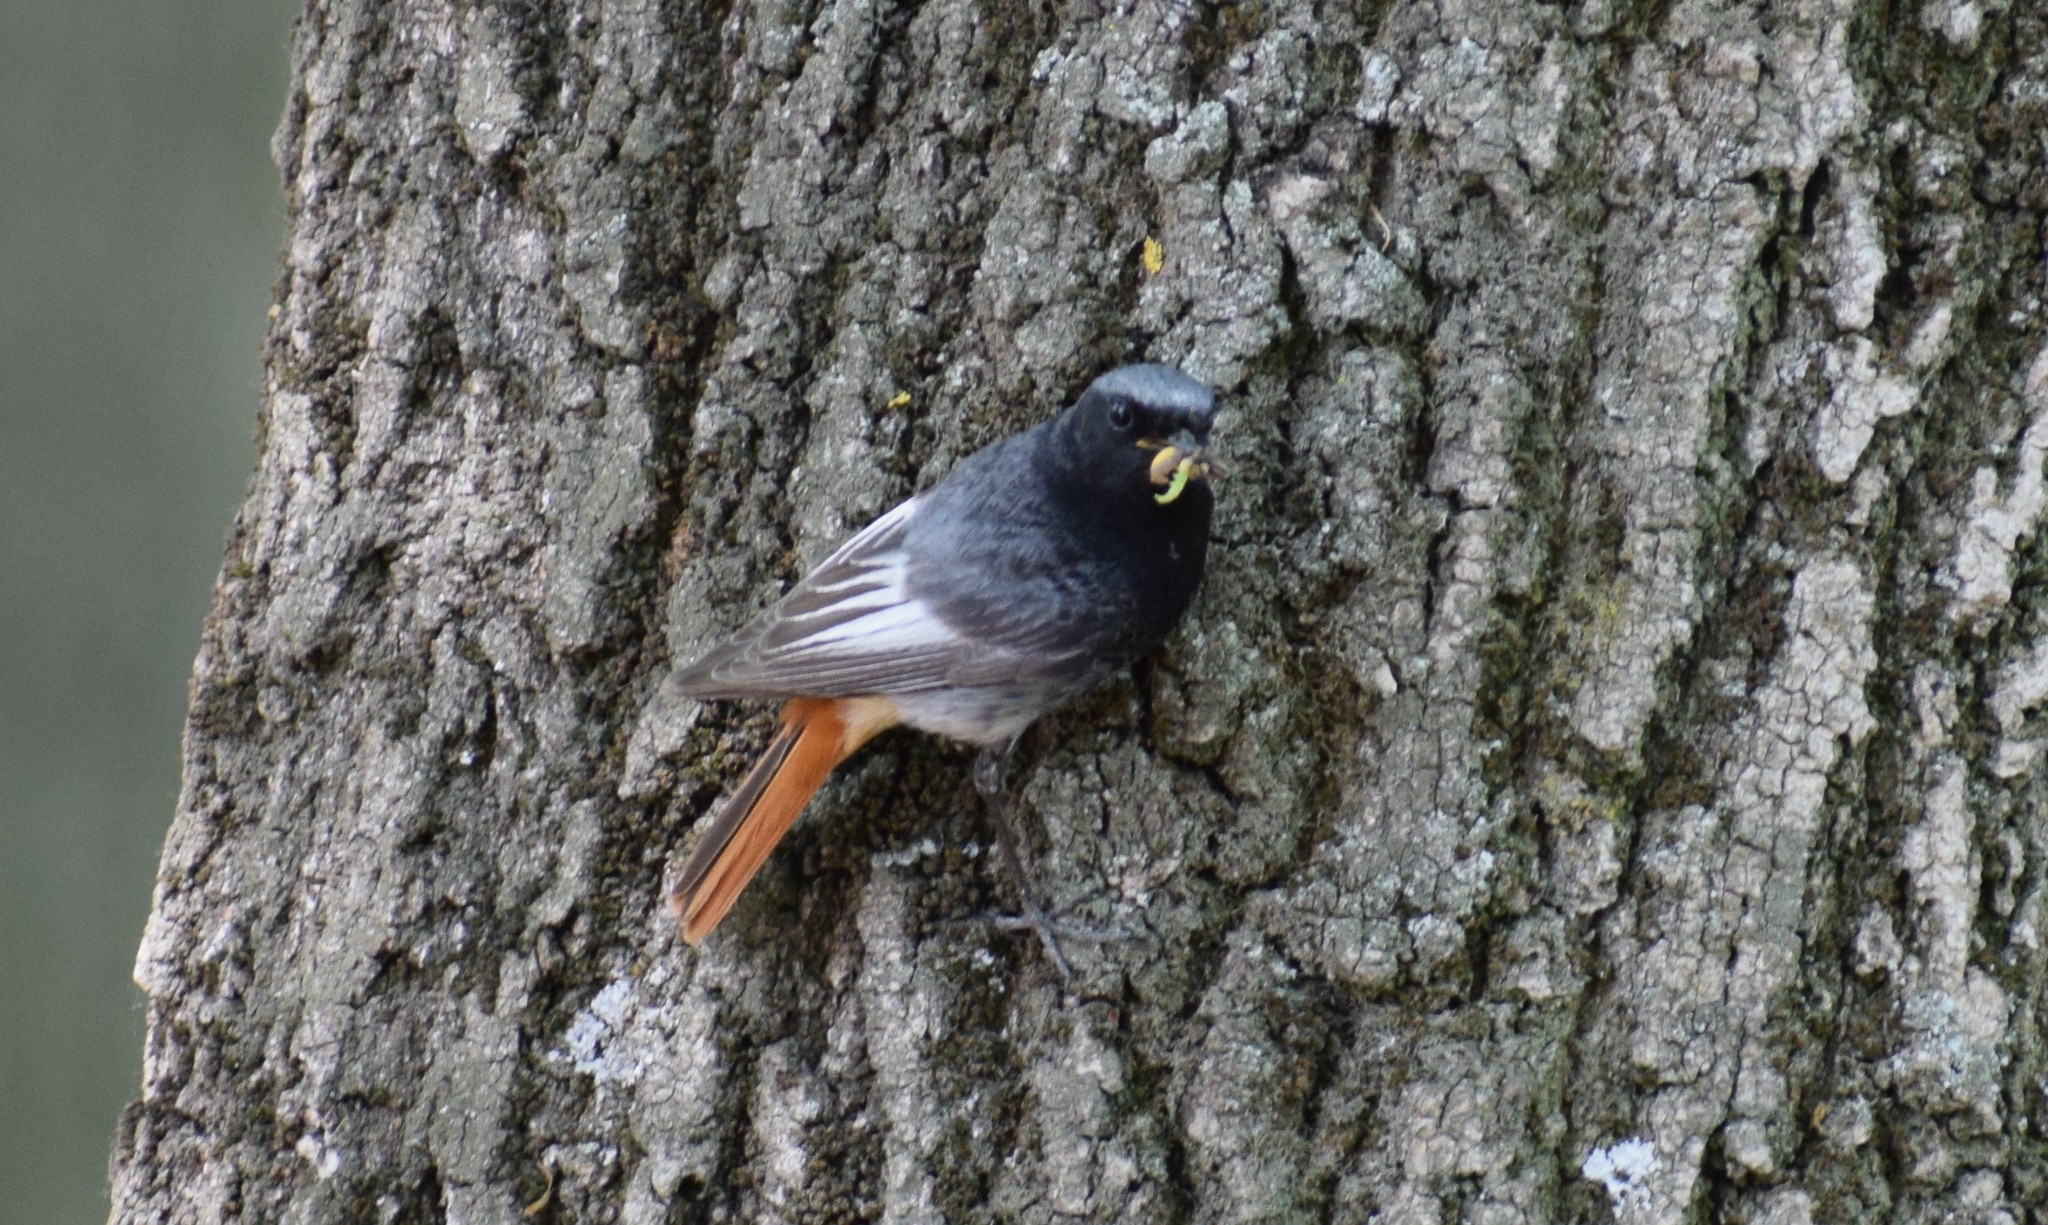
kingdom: Animalia
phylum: Chordata
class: Aves
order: Passeriformes
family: Muscicapidae
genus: Phoenicurus
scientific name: Phoenicurus phoenicurus
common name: Common redstart
